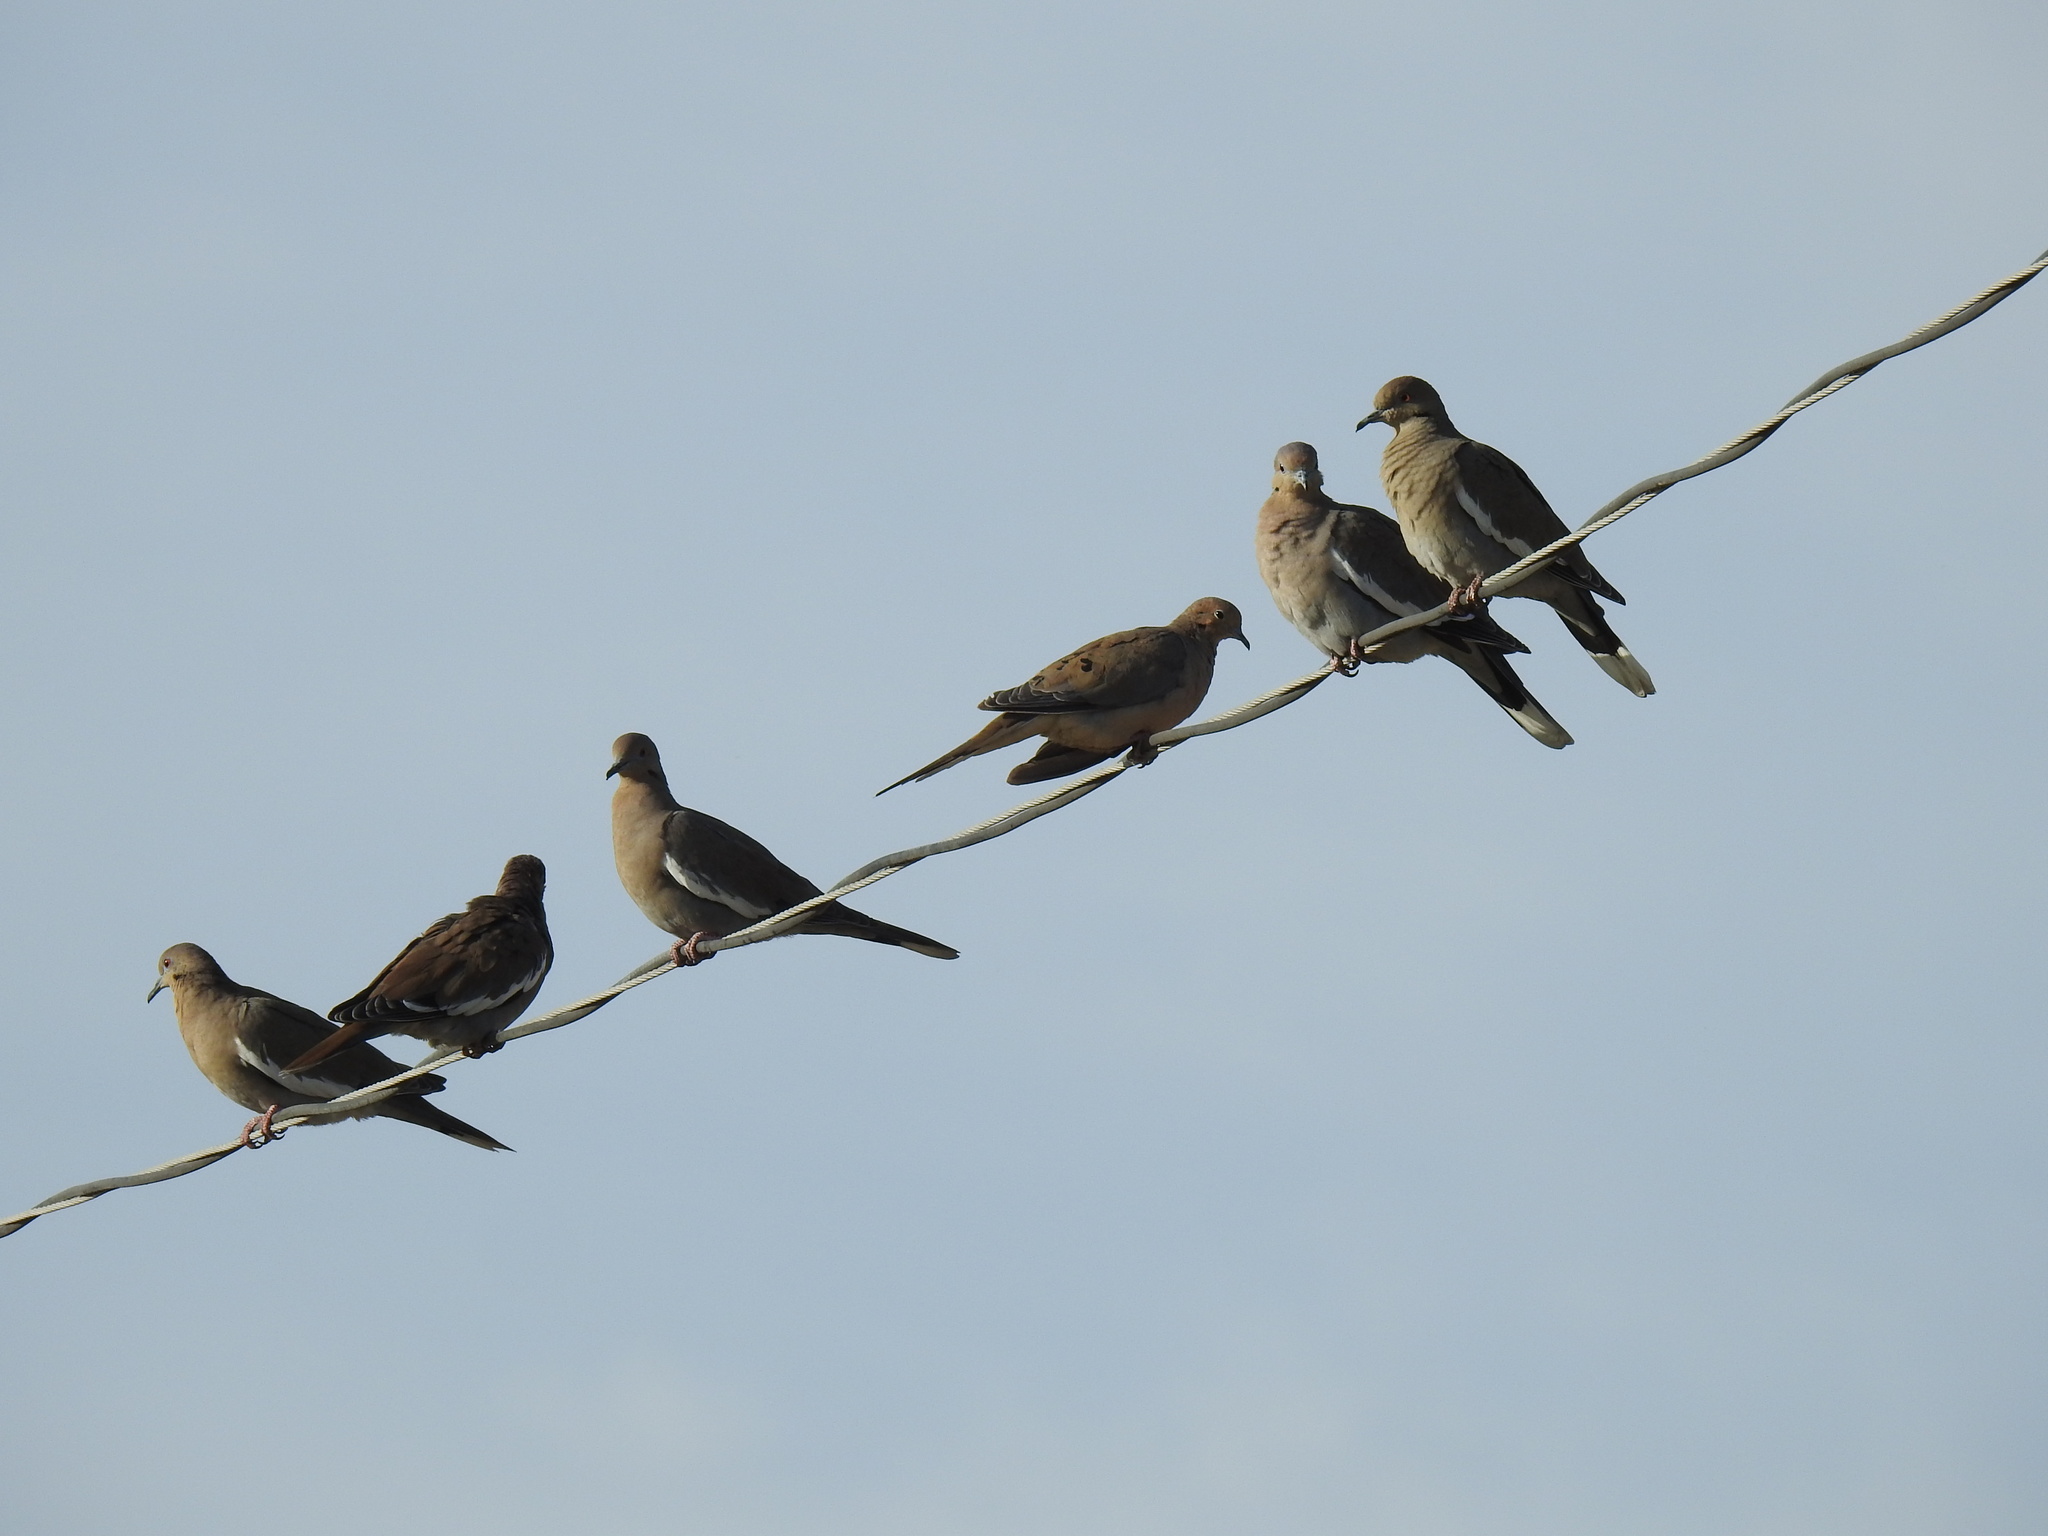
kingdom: Animalia
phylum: Chordata
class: Aves
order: Columbiformes
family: Columbidae
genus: Zenaida
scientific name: Zenaida asiatica
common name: White-winged dove
